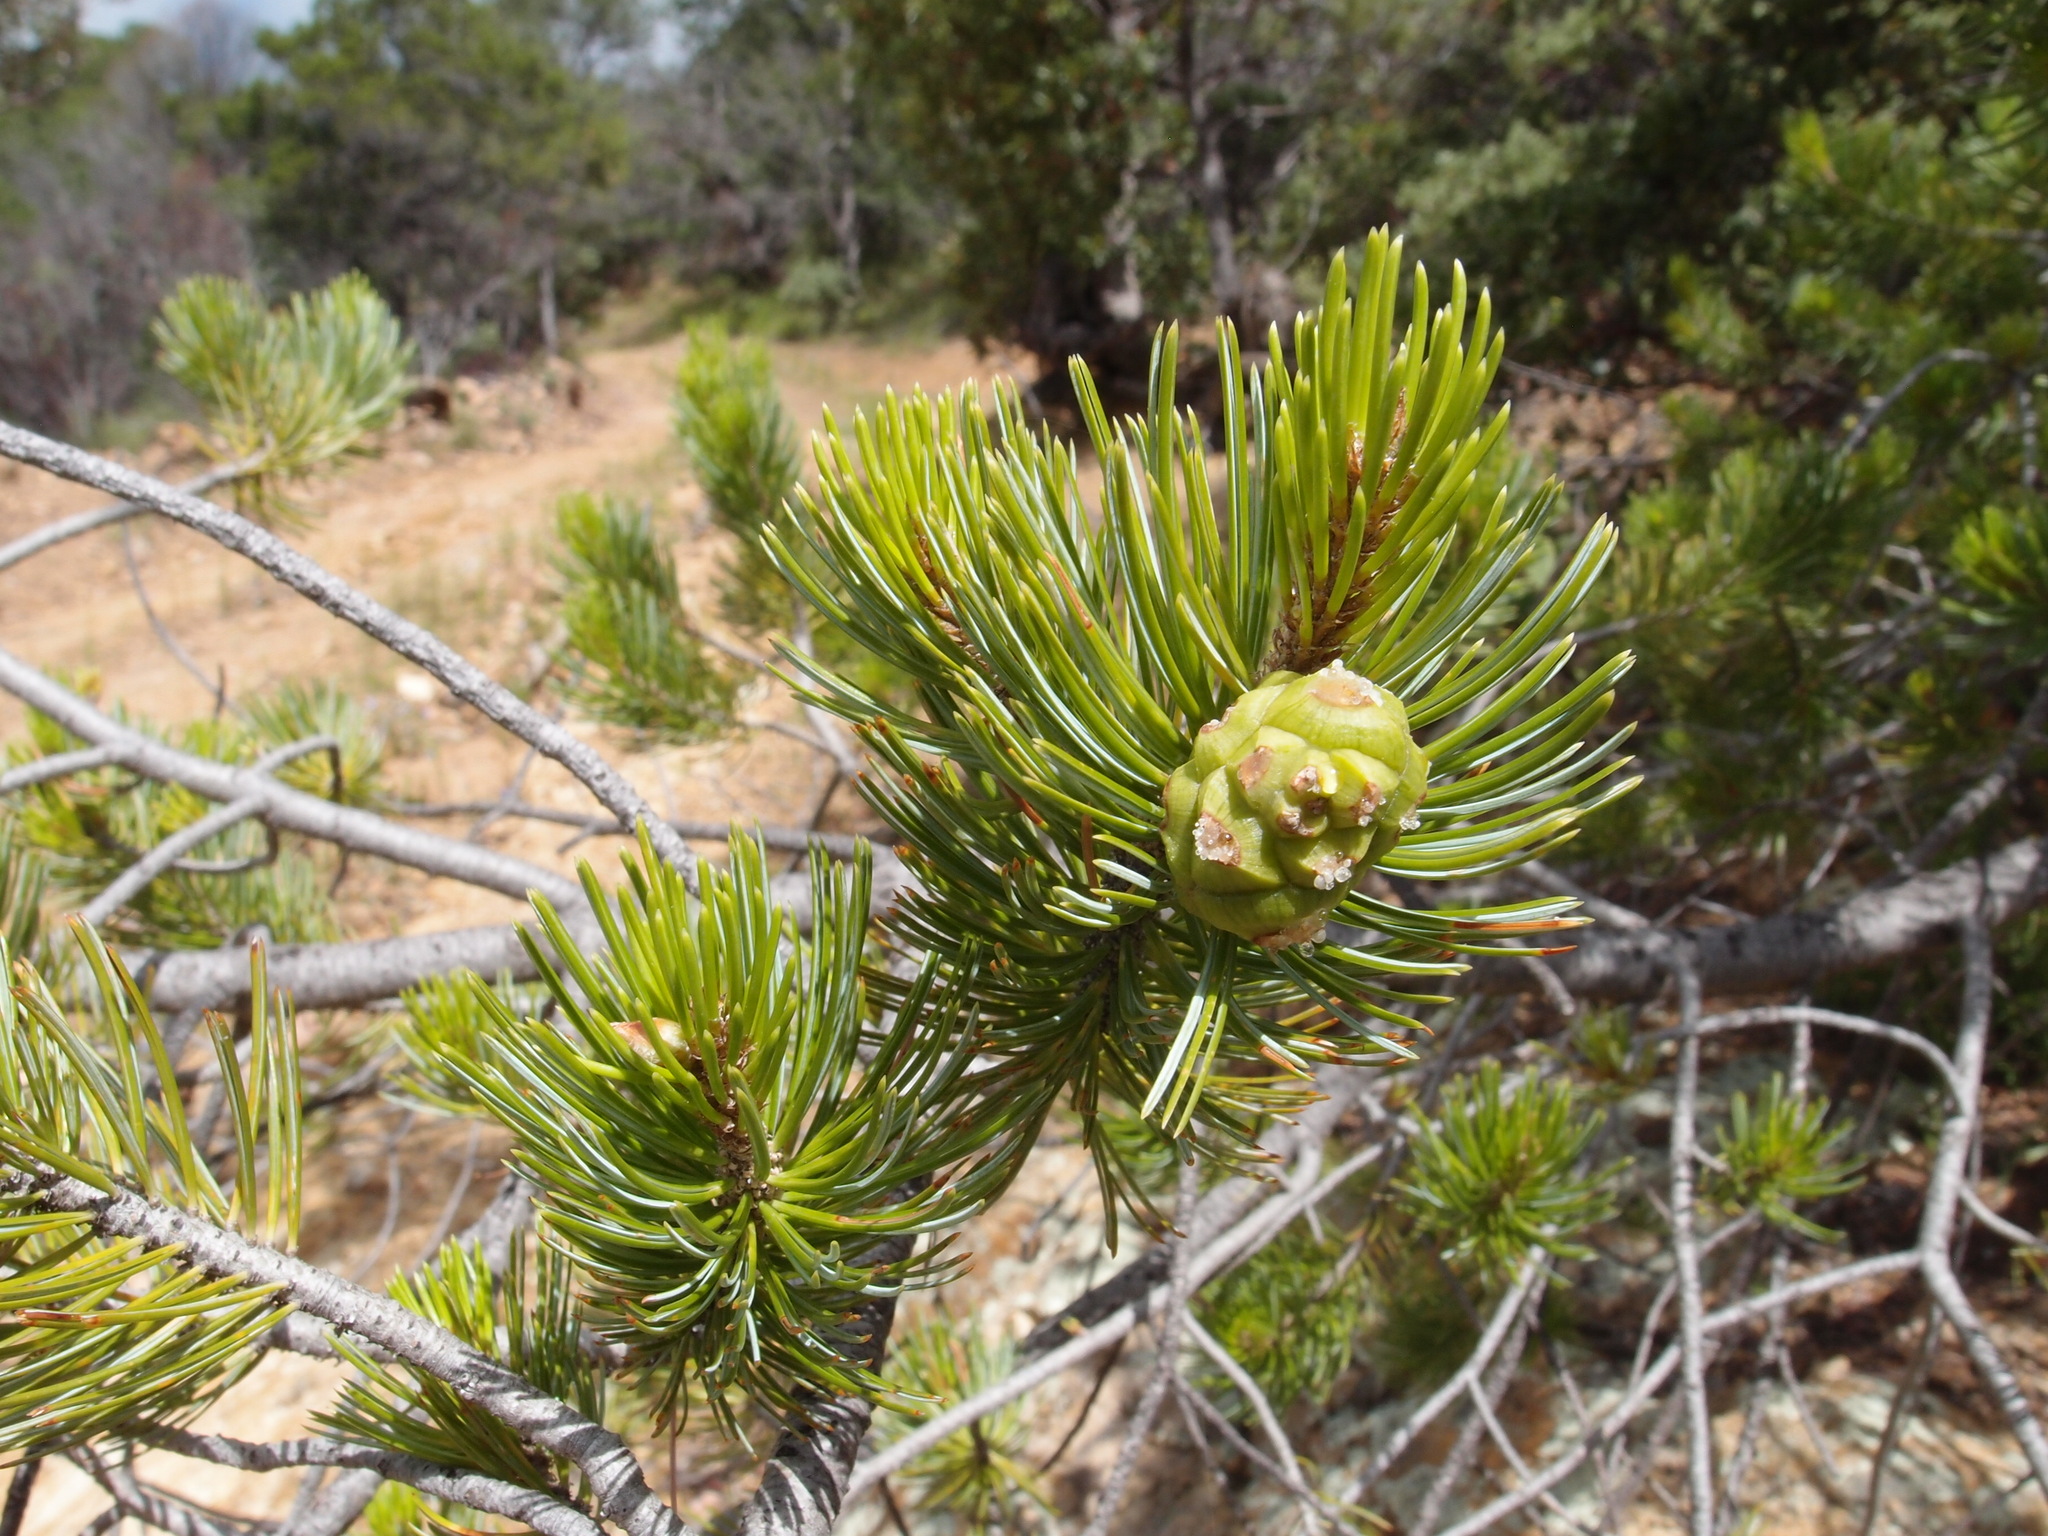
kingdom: Plantae
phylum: Tracheophyta
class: Pinopsida
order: Pinales
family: Pinaceae
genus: Pinus
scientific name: Pinus discolor
